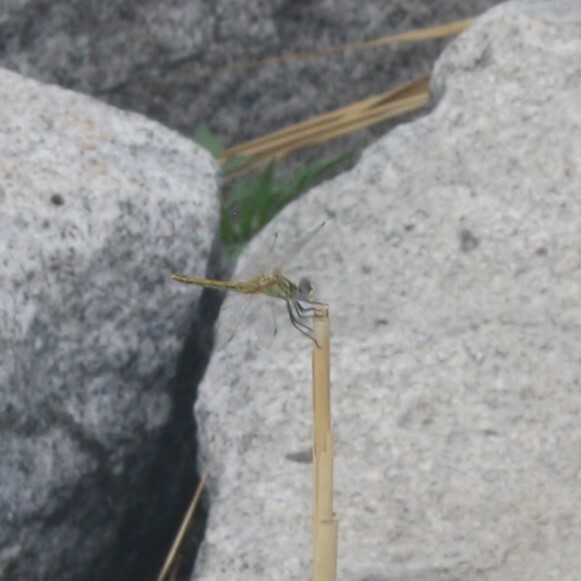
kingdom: Animalia
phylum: Arthropoda
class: Insecta
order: Odonata
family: Libellulidae
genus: Sympetrum
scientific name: Sympetrum fonscolombii
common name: Red-veined darter
